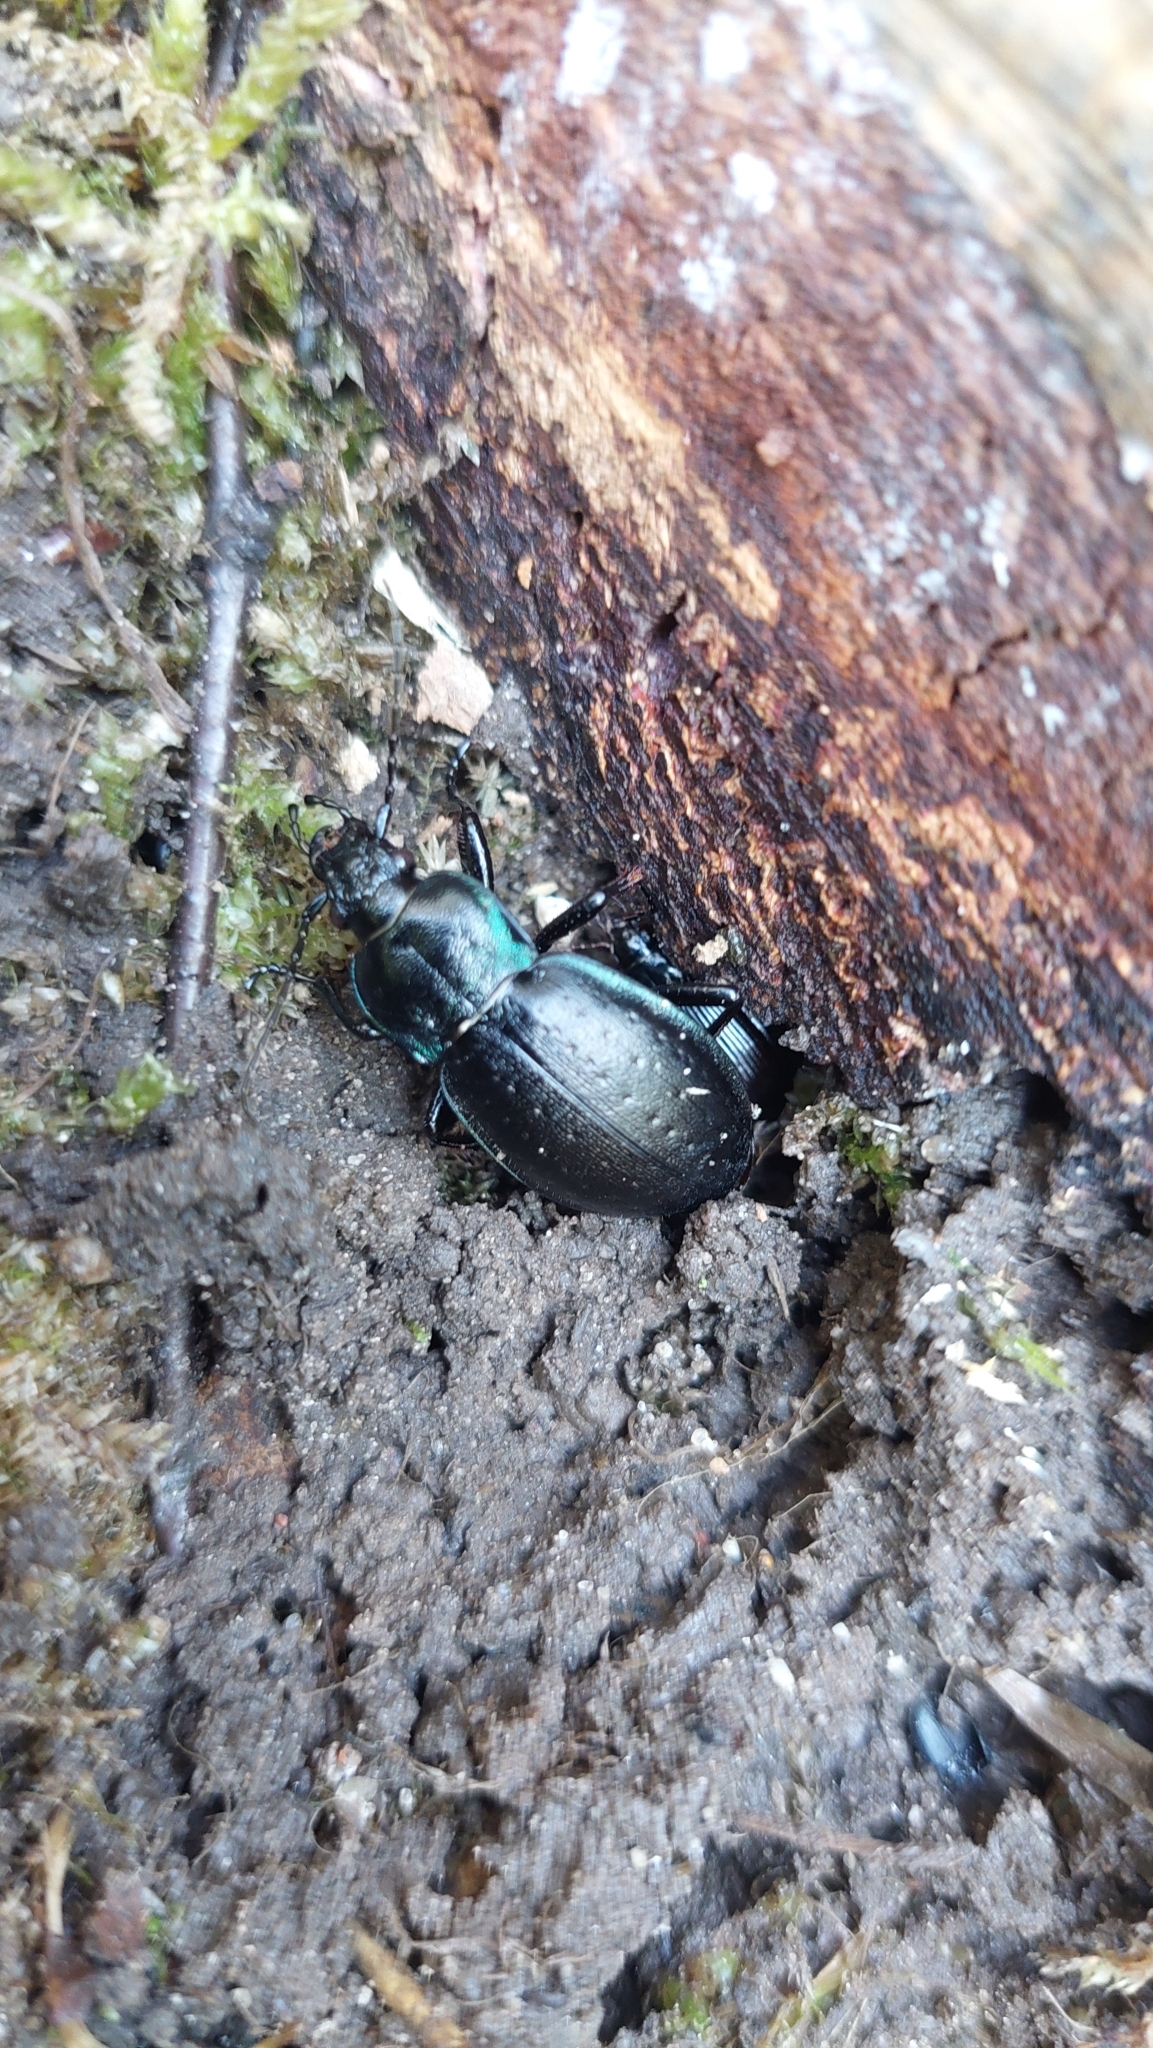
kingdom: Animalia
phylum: Arthropoda
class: Insecta
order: Coleoptera
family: Carabidae
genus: Carabus
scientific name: Carabus nemoralis
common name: European ground beetle
